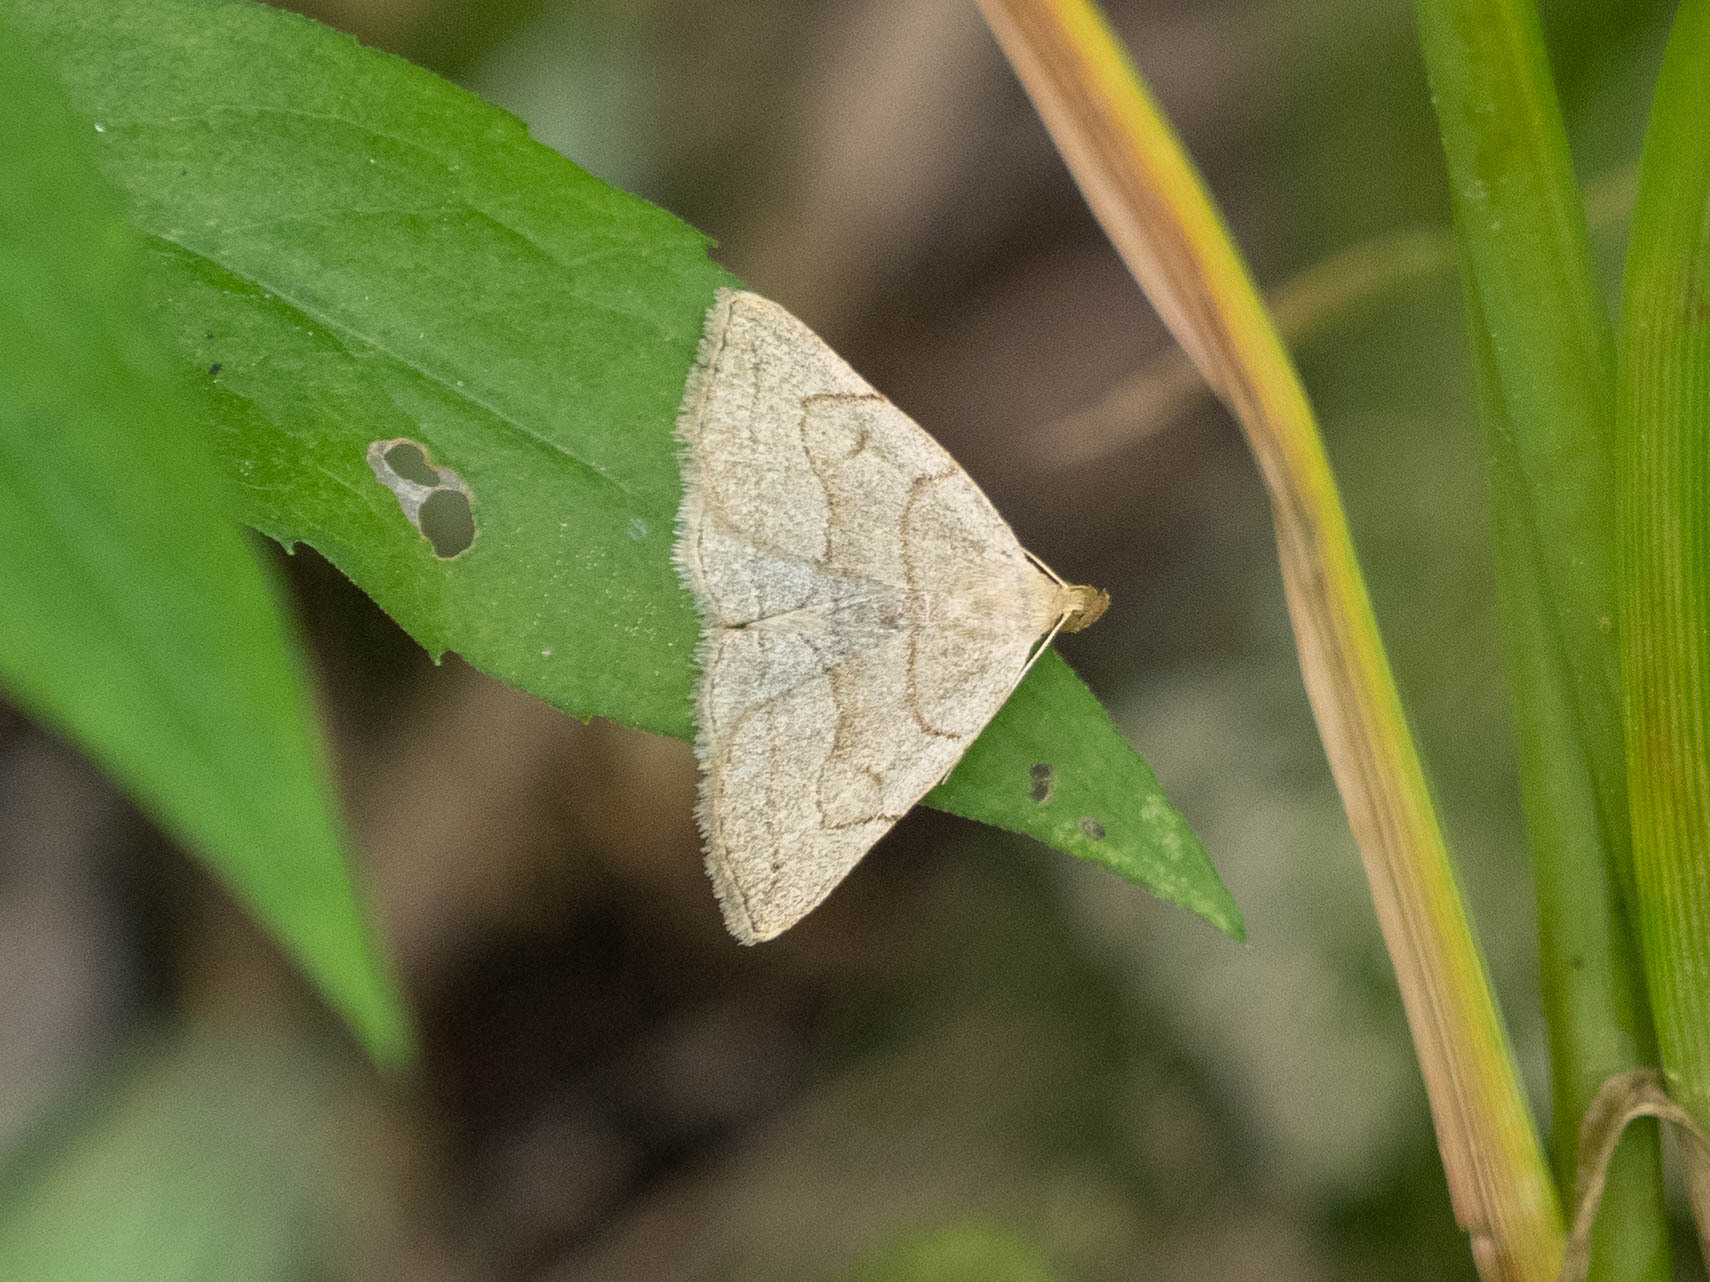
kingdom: Animalia
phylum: Arthropoda
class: Insecta
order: Lepidoptera
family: Erebidae
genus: Zanclognatha
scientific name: Zanclognatha pedipilalis
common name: Grayish fan-foot
